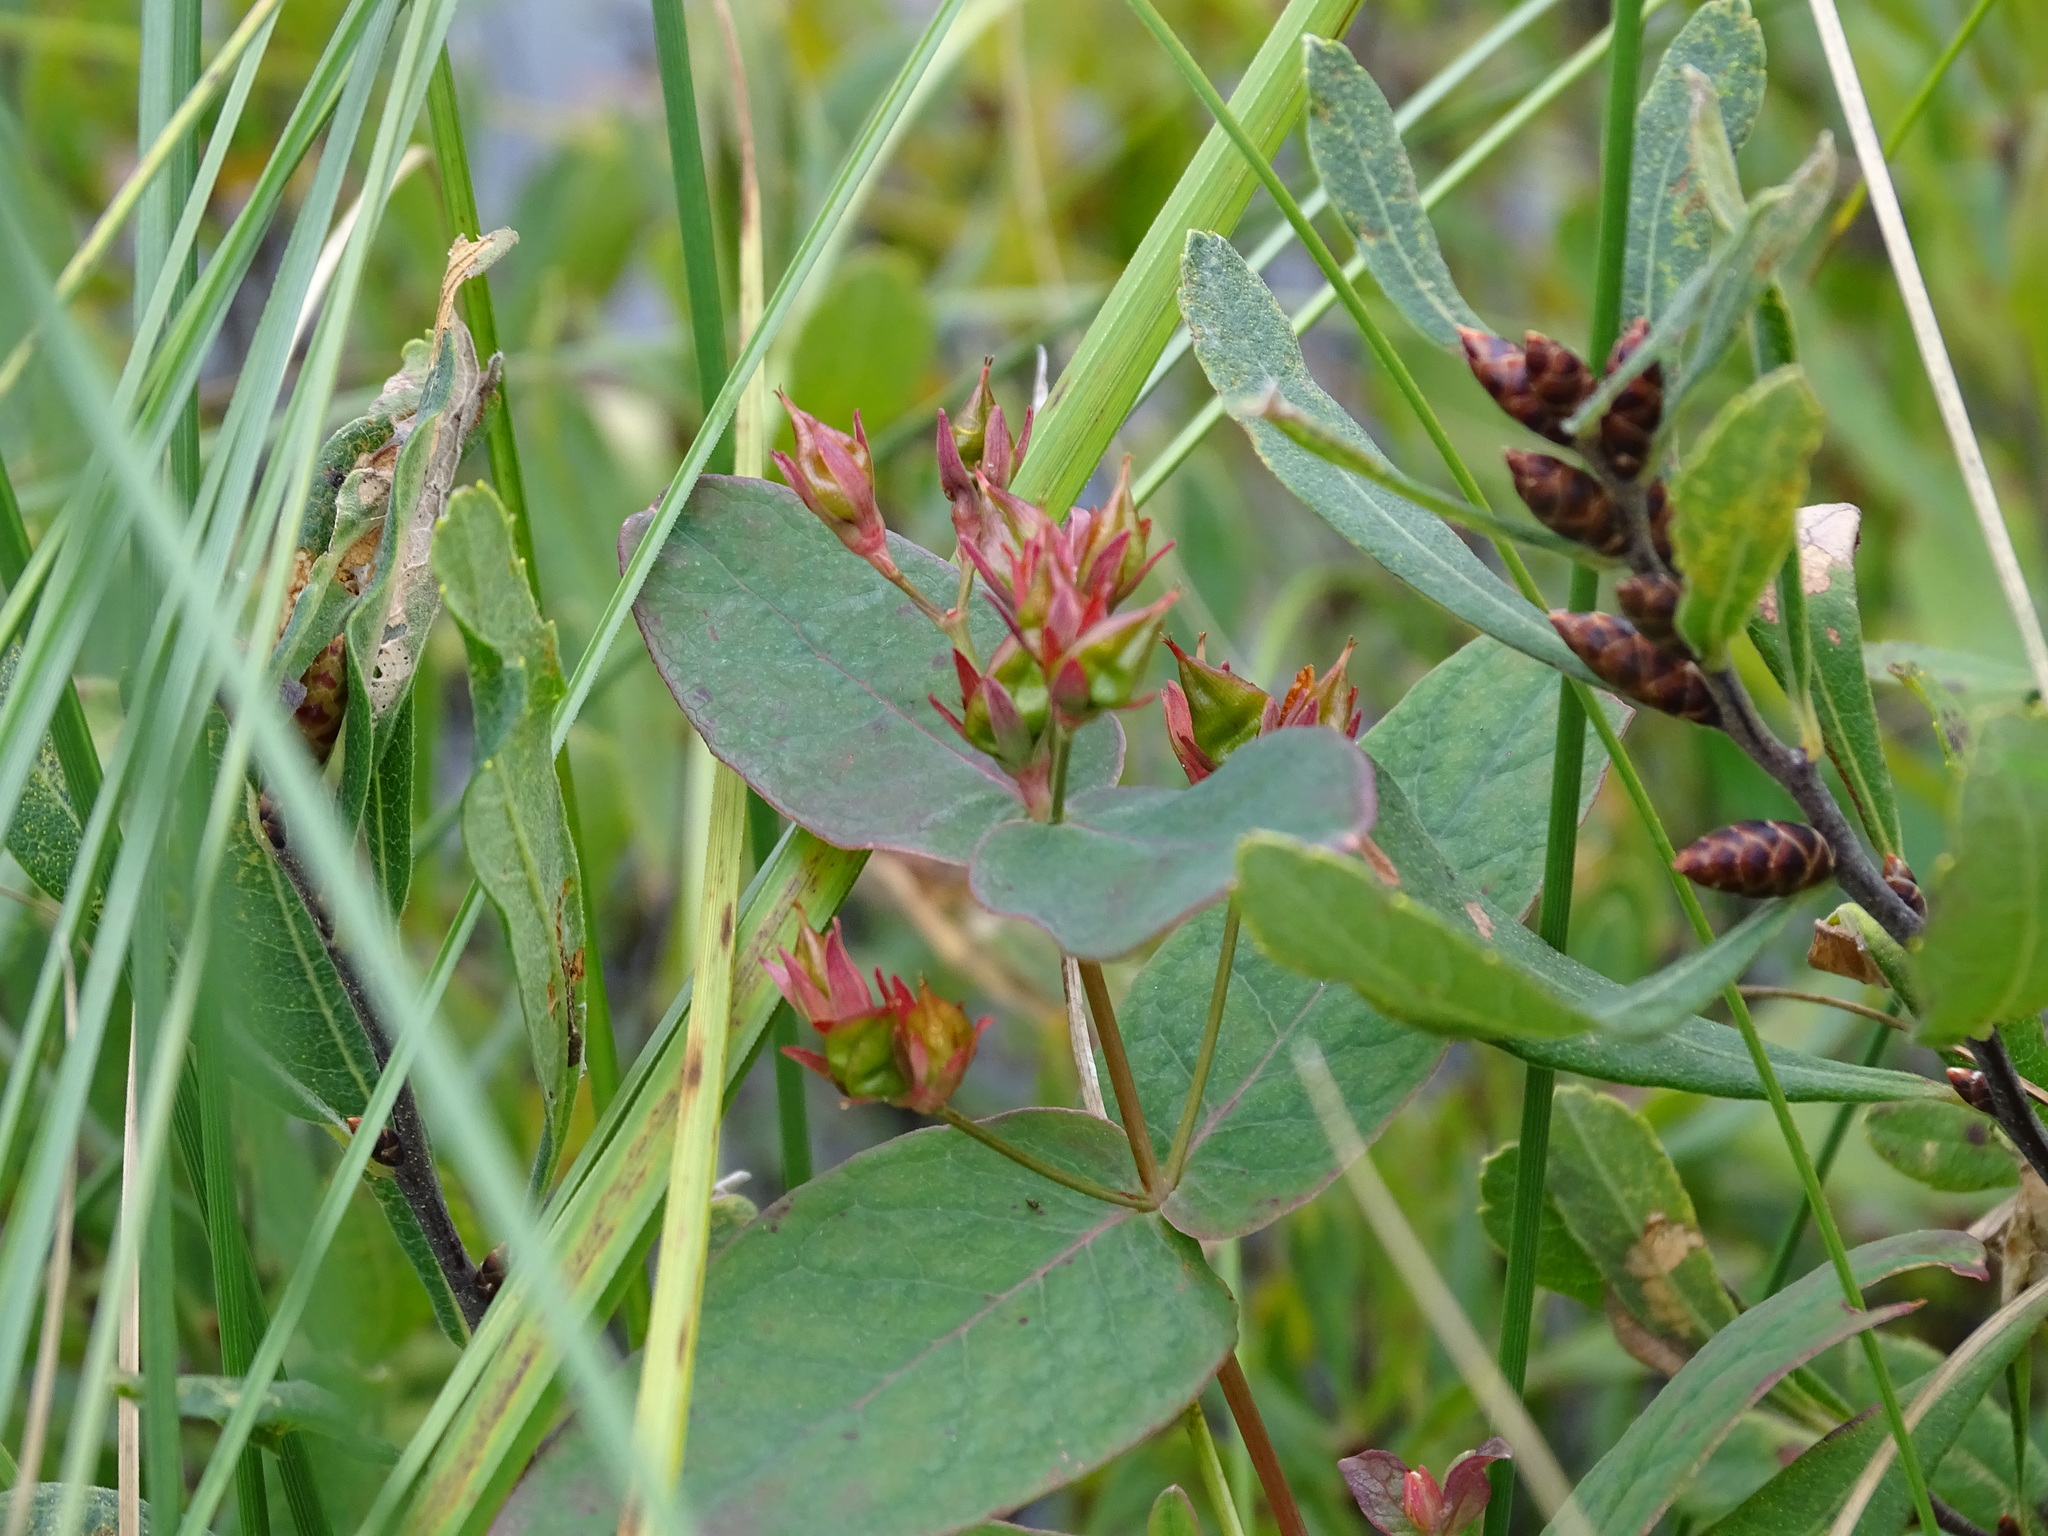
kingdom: Plantae
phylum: Tracheophyta
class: Magnoliopsida
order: Malpighiales
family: Hypericaceae
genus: Triadenum
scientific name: Triadenum fraseri
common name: Fraser's marsh st. johnswort
